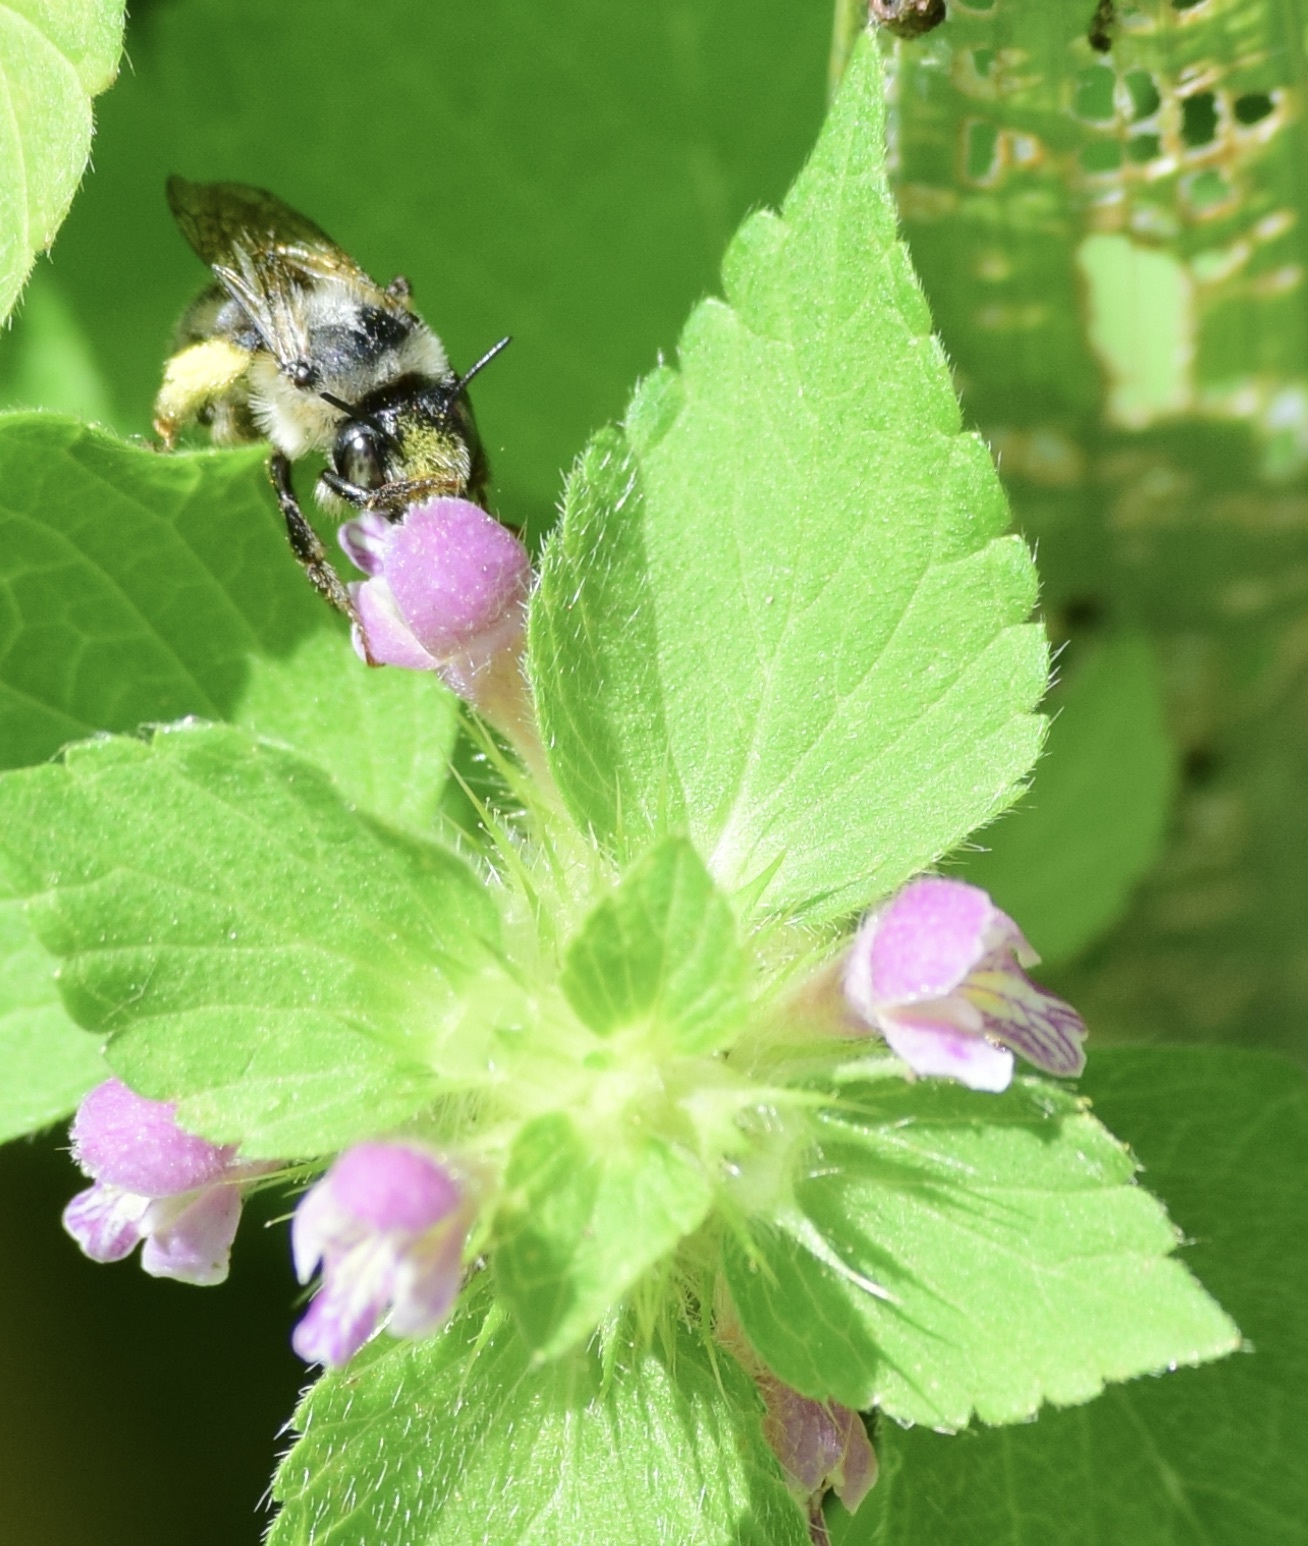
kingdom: Animalia
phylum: Arthropoda
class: Insecta
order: Hymenoptera
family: Apidae
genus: Anthophora
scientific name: Anthophora terminalis
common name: Orange-tipped wood-digger bee
